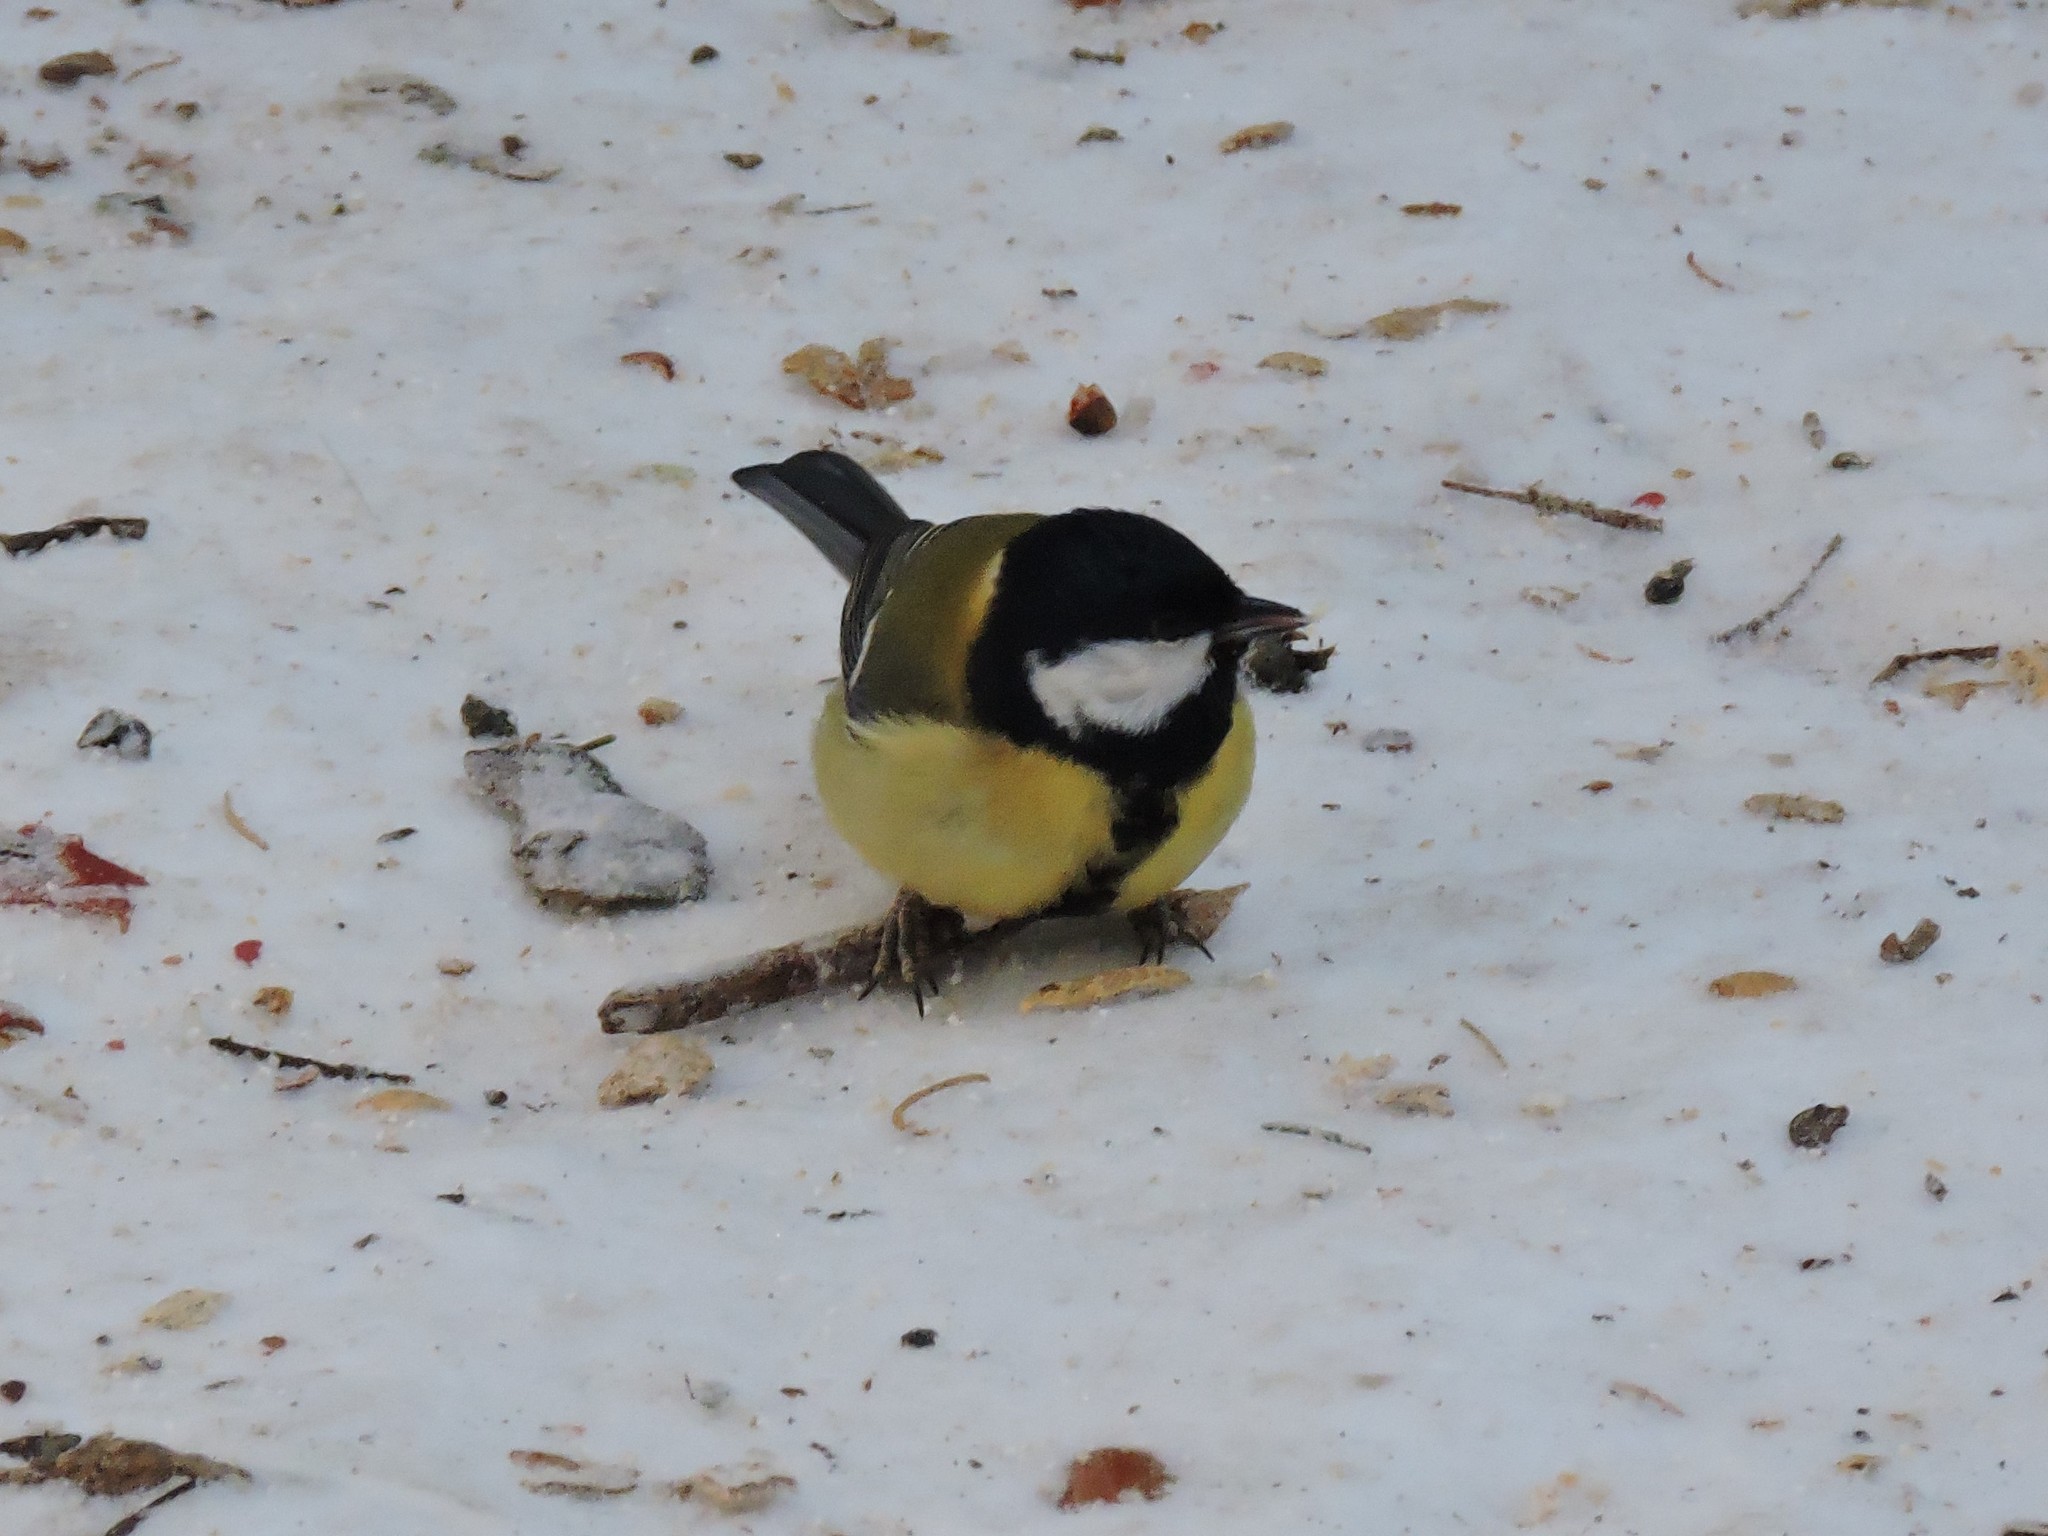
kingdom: Animalia
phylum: Chordata
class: Aves
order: Passeriformes
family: Paridae
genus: Parus
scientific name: Parus major
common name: Great tit
